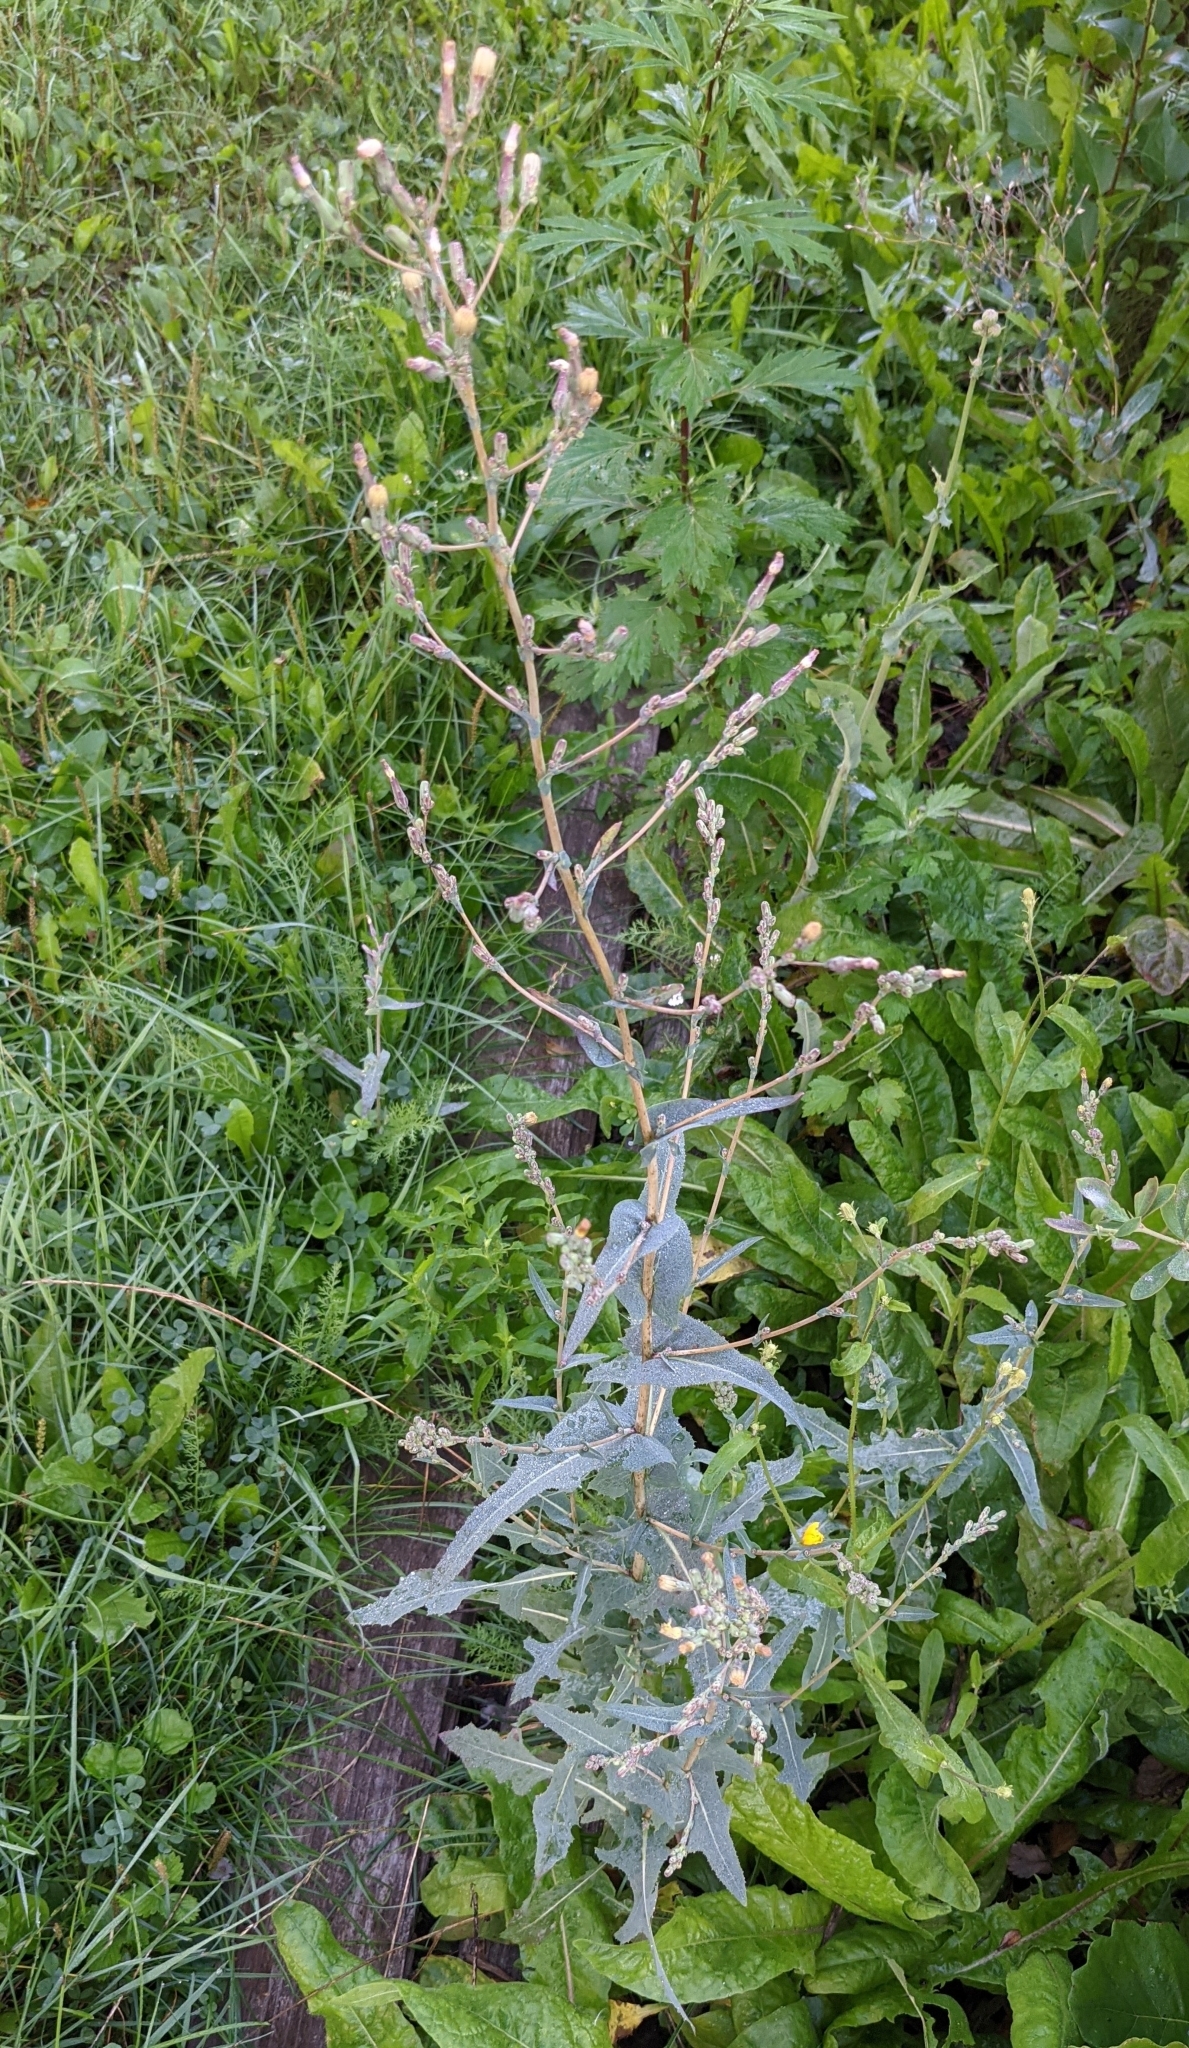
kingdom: Plantae
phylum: Tracheophyta
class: Magnoliopsida
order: Asterales
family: Asteraceae
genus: Lactuca
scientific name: Lactuca serriola
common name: Prickly lettuce
